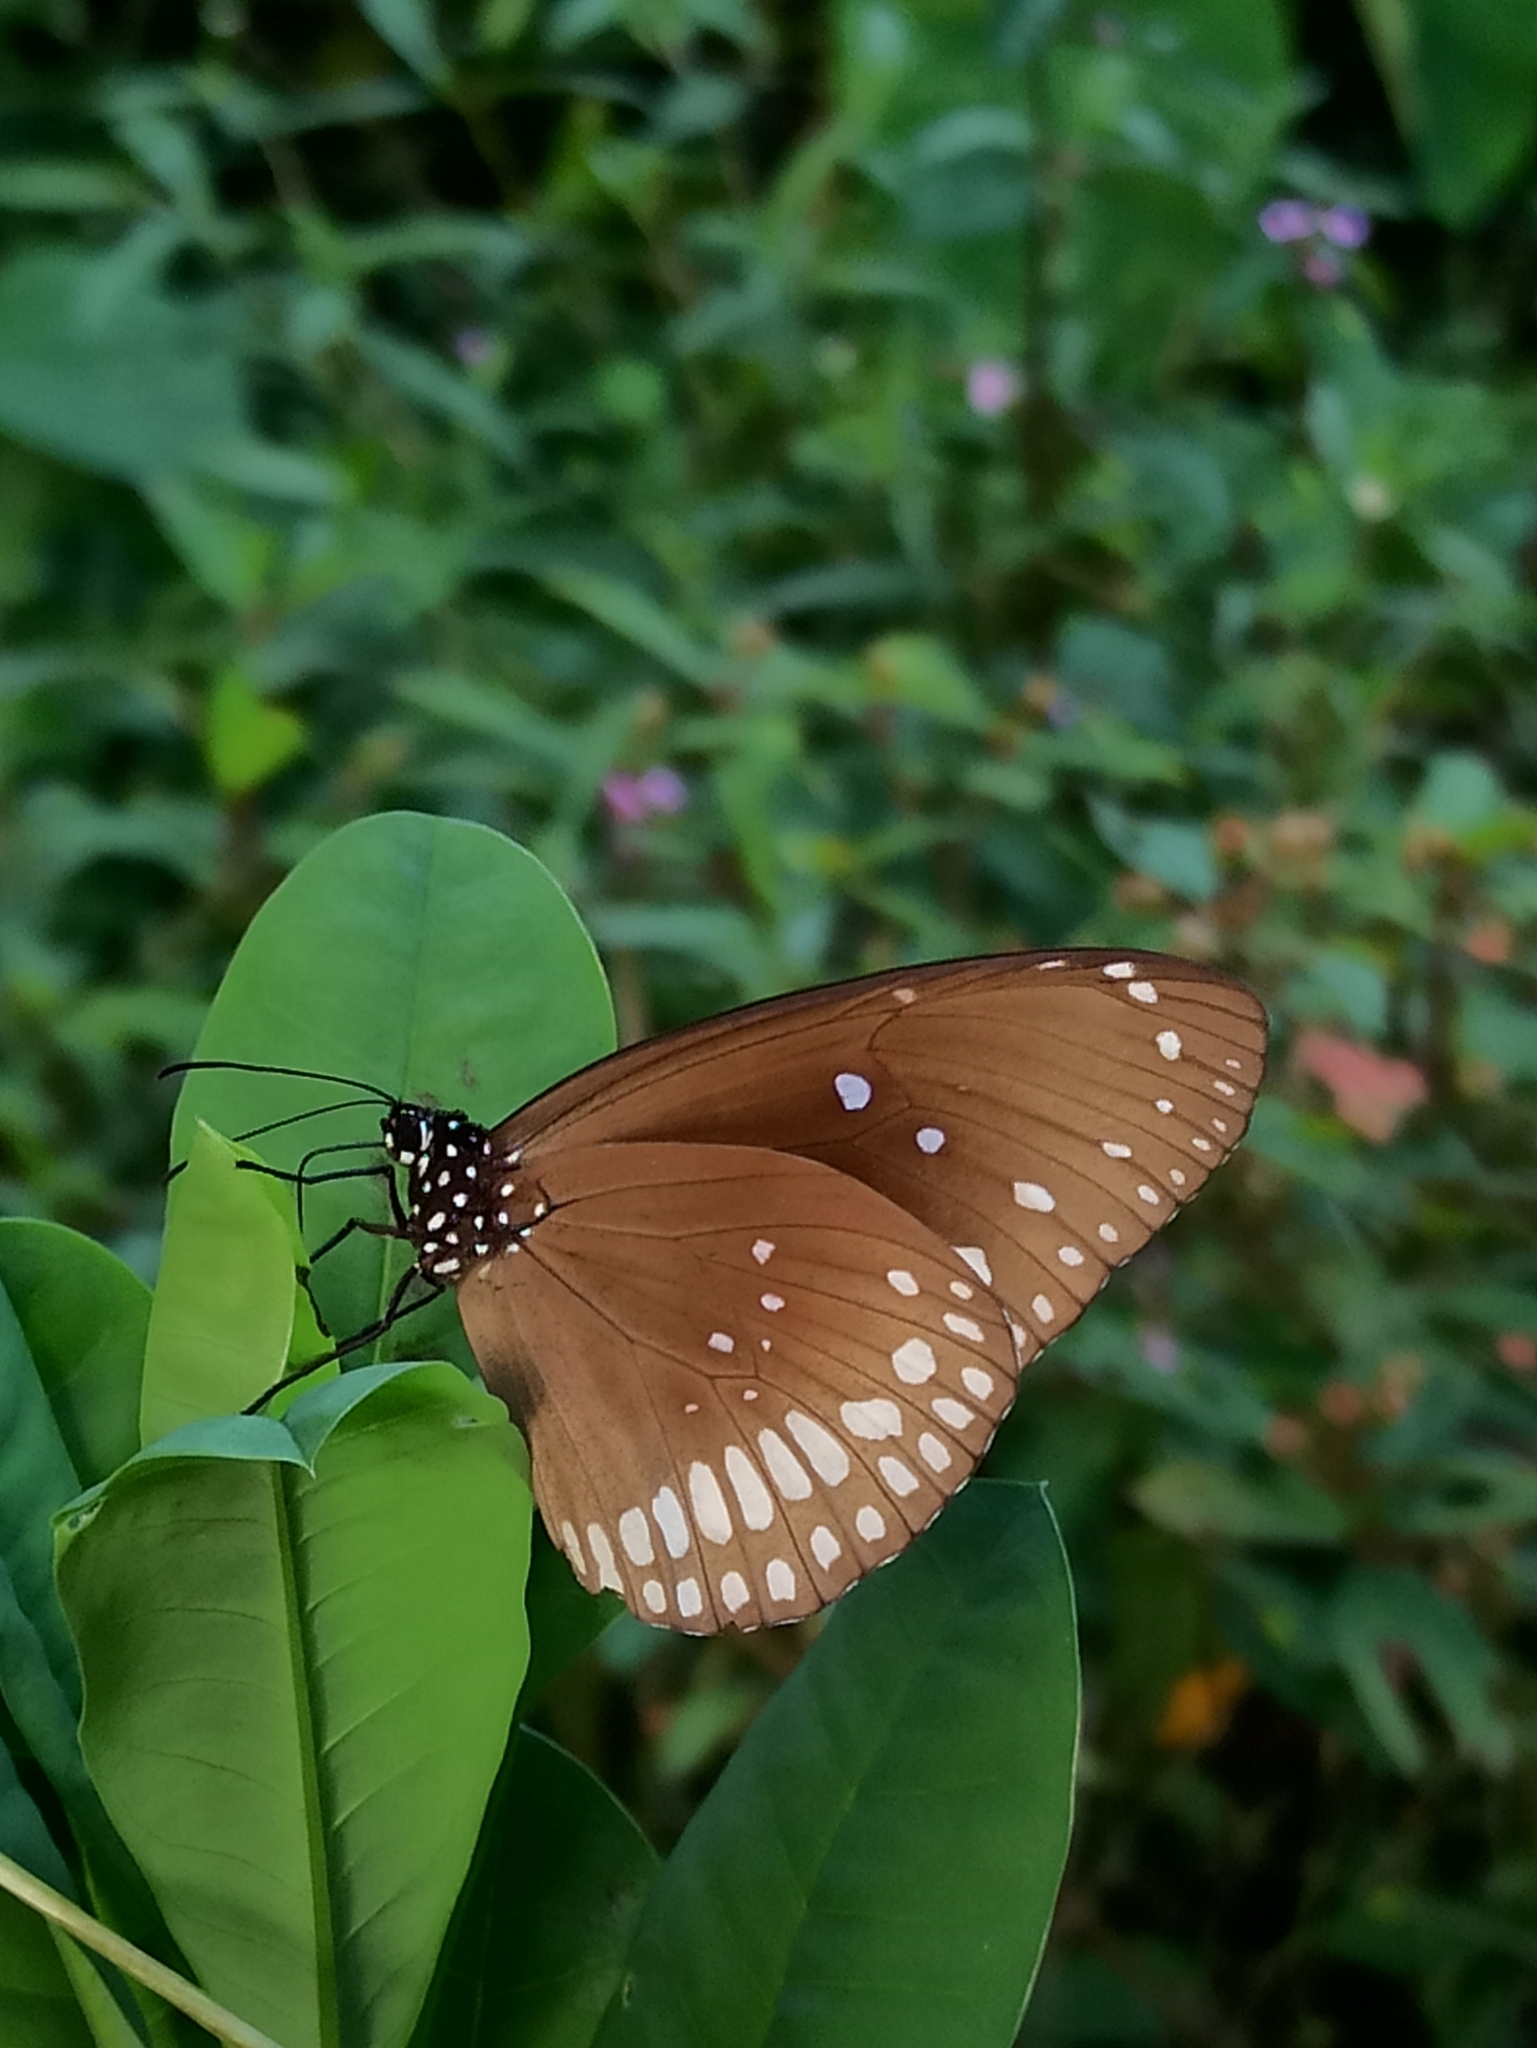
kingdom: Animalia
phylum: Arthropoda
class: Insecta
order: Lepidoptera
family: Nymphalidae
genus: Euploea
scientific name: Euploea core
